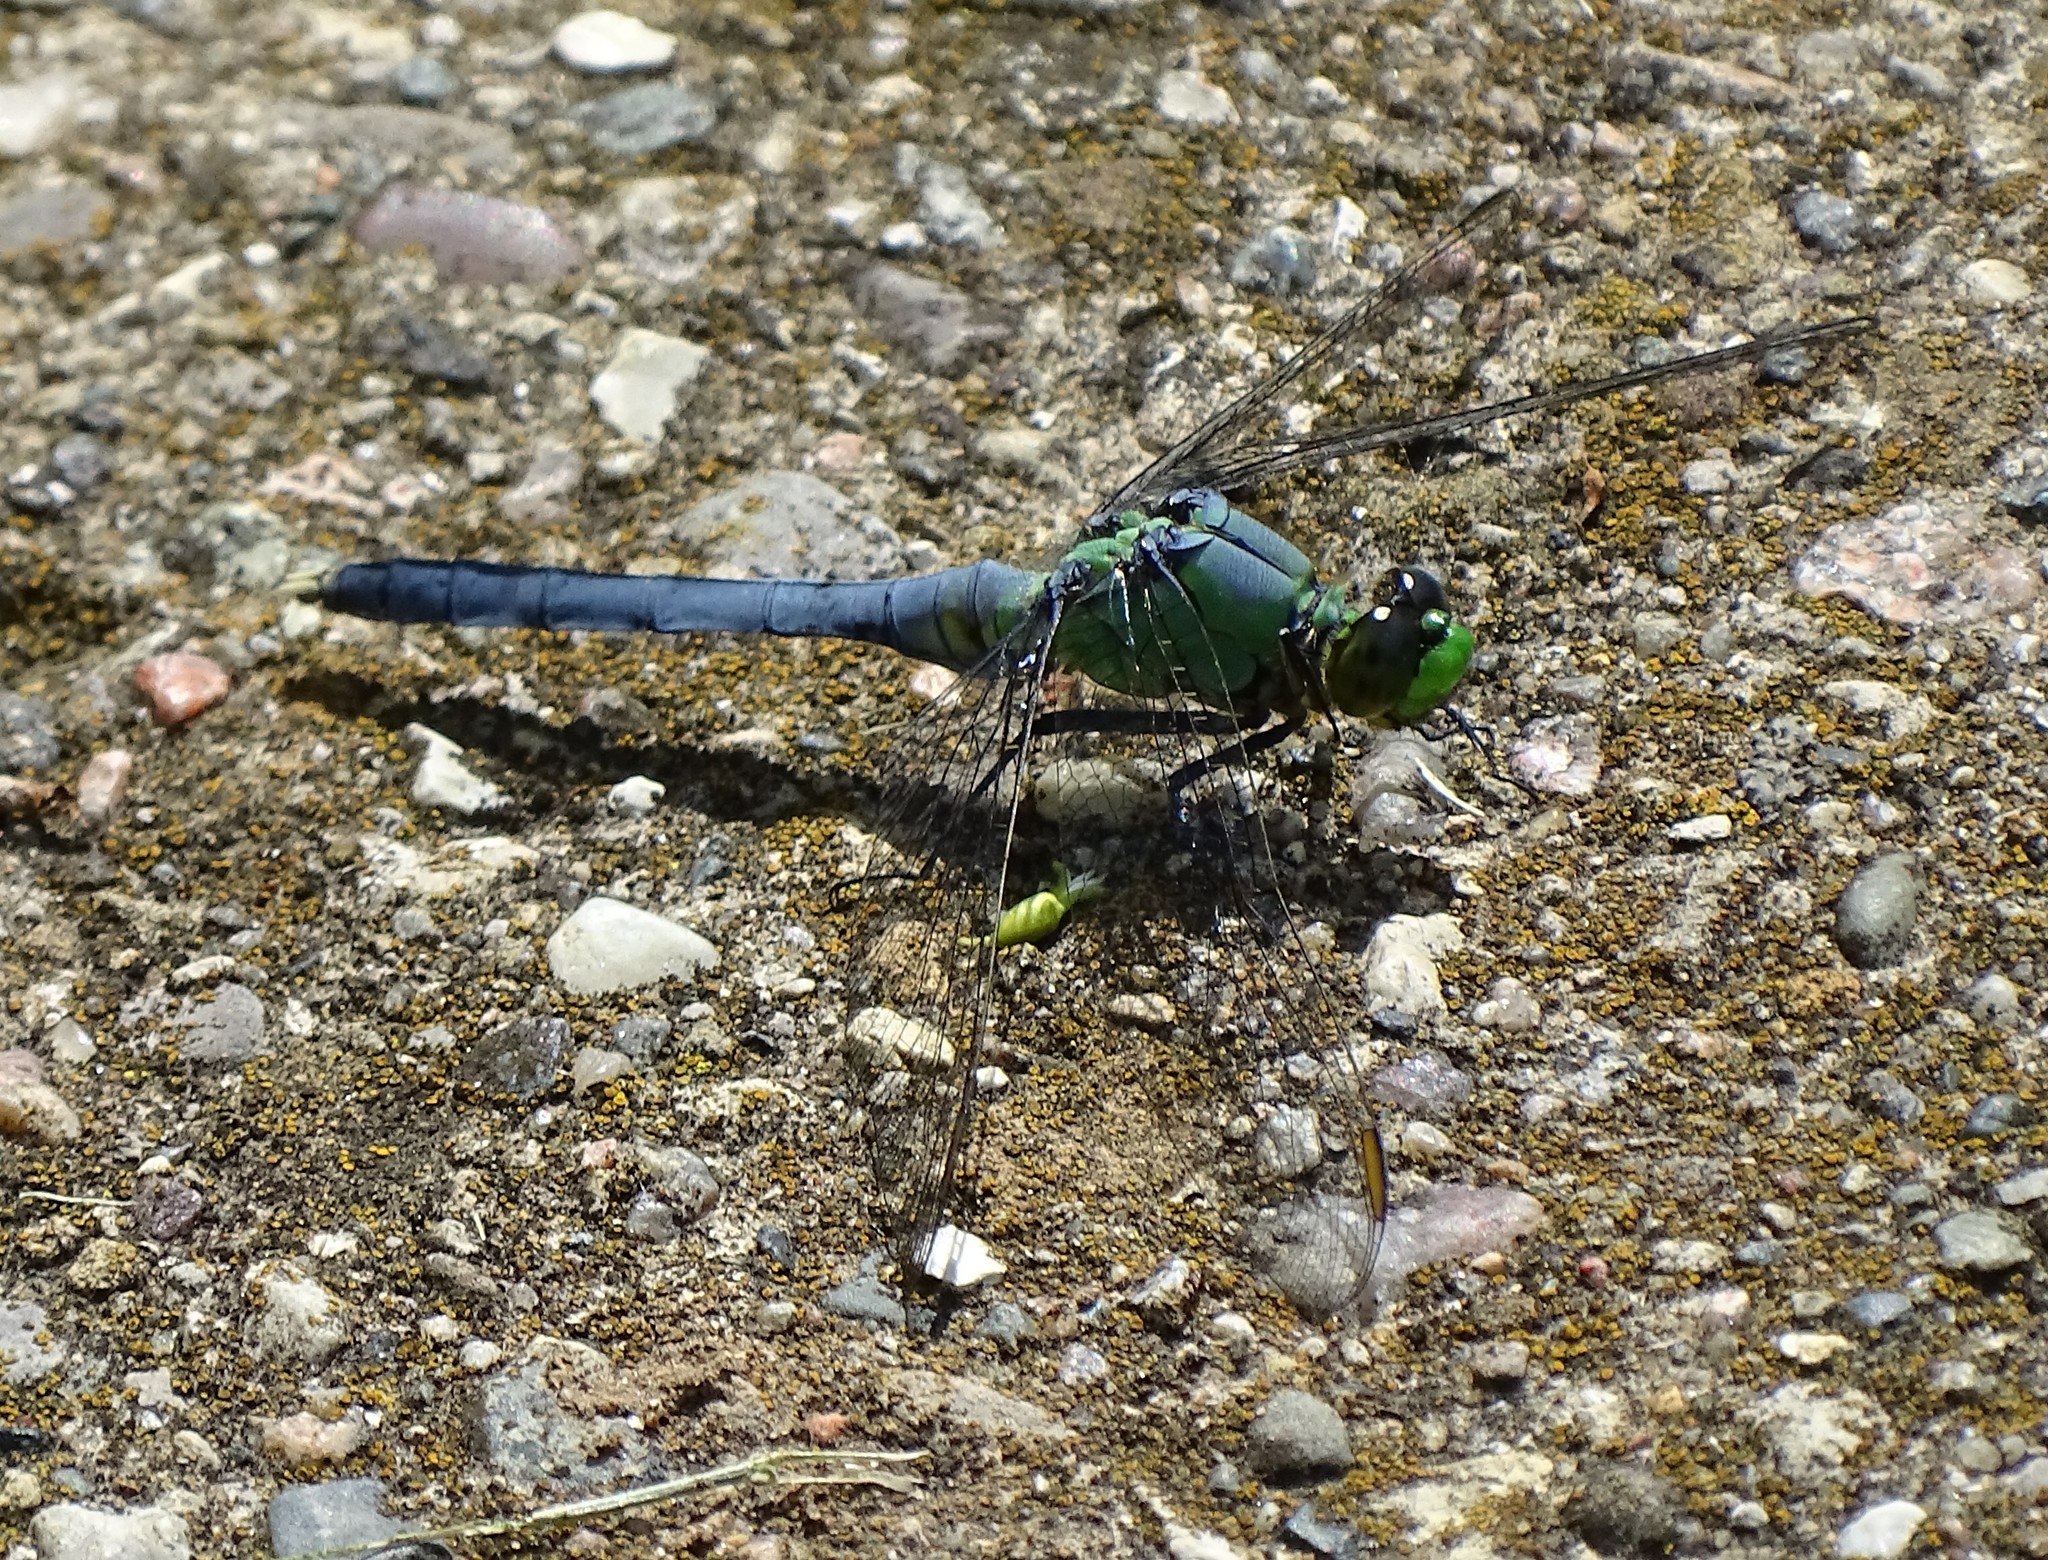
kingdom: Animalia
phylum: Arthropoda
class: Insecta
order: Odonata
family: Libellulidae
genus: Erythemis
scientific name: Erythemis simplicicollis
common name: Eastern pondhawk
